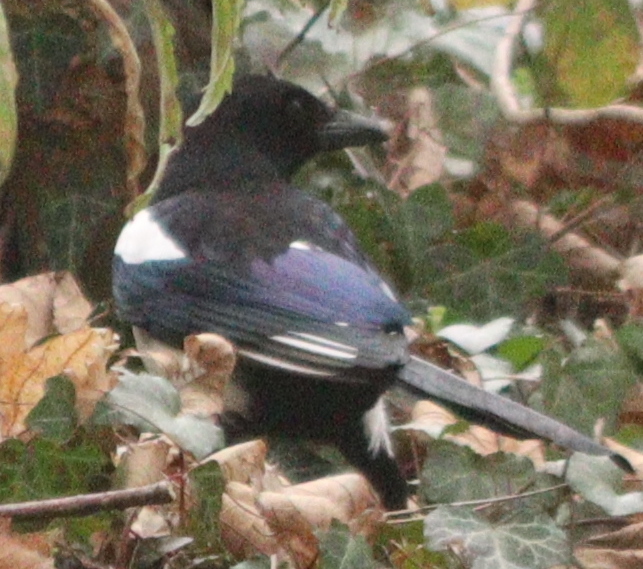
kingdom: Animalia
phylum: Chordata
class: Aves
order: Passeriformes
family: Corvidae
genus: Pica
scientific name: Pica pica
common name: Eurasian magpie
